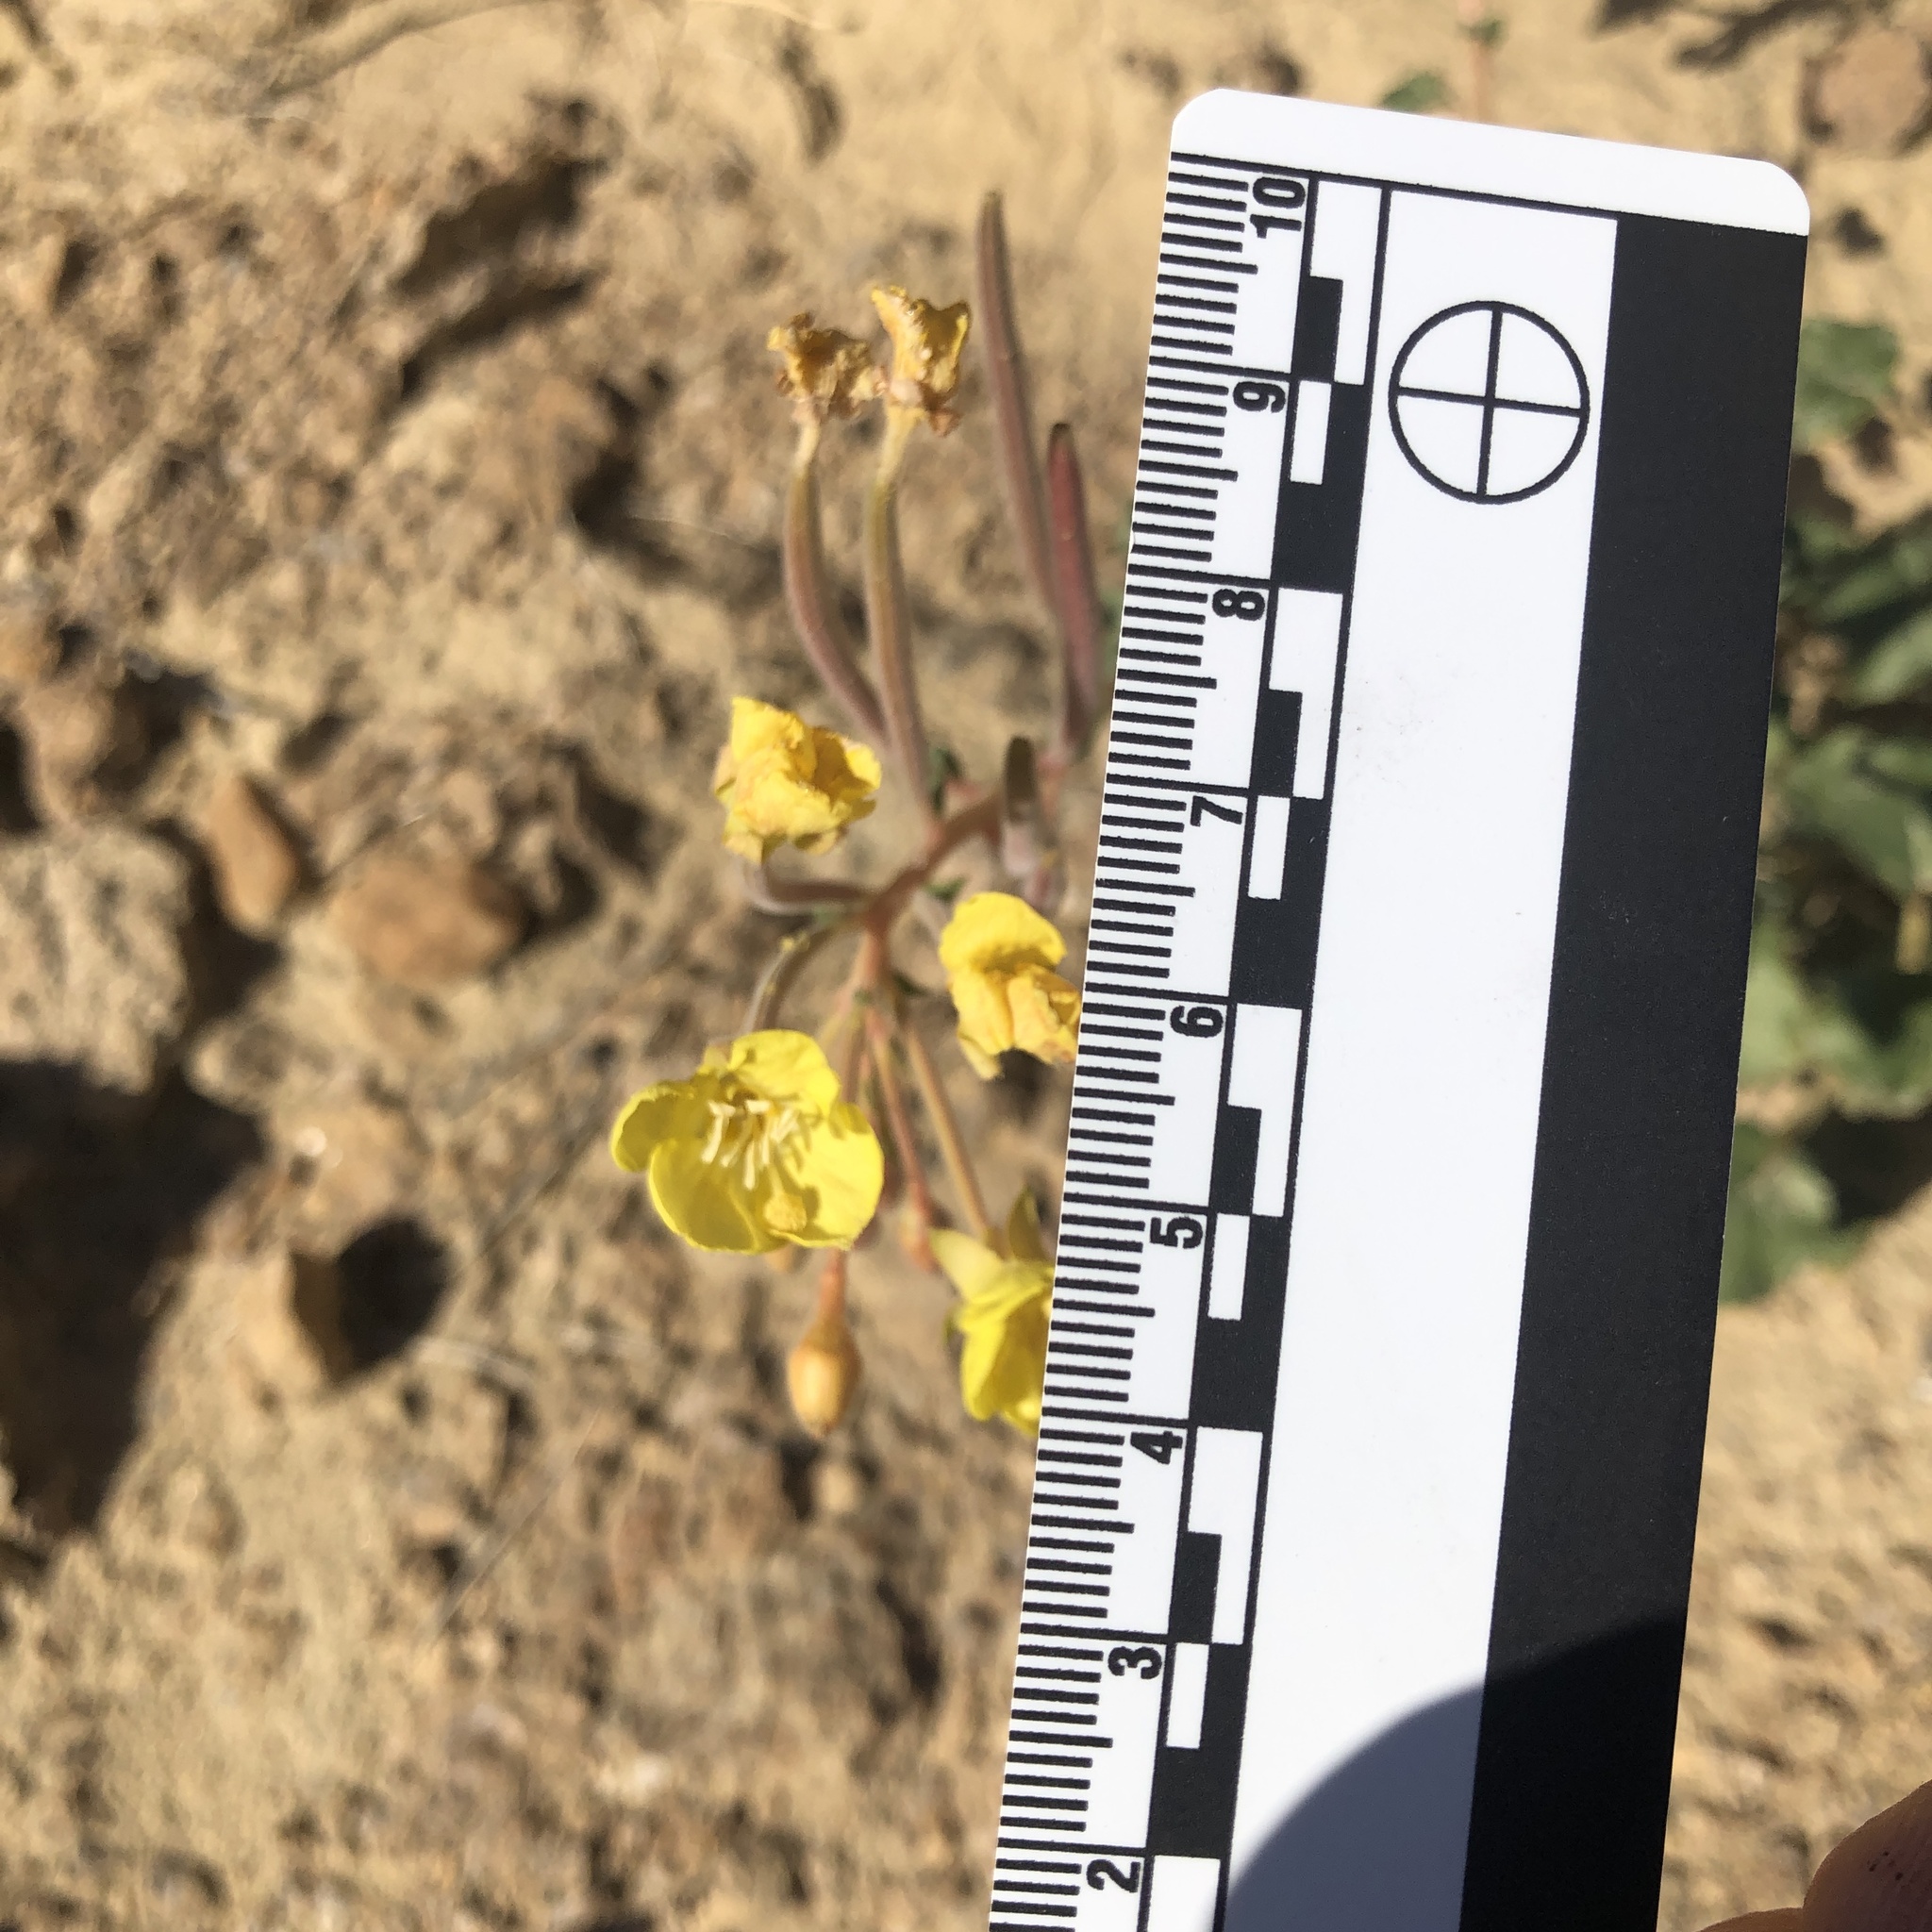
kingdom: Plantae
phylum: Tracheophyta
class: Magnoliopsida
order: Myrtales
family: Onagraceae
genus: Chylismia
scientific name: Chylismia cardiophylla
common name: Heartleaf suncup
